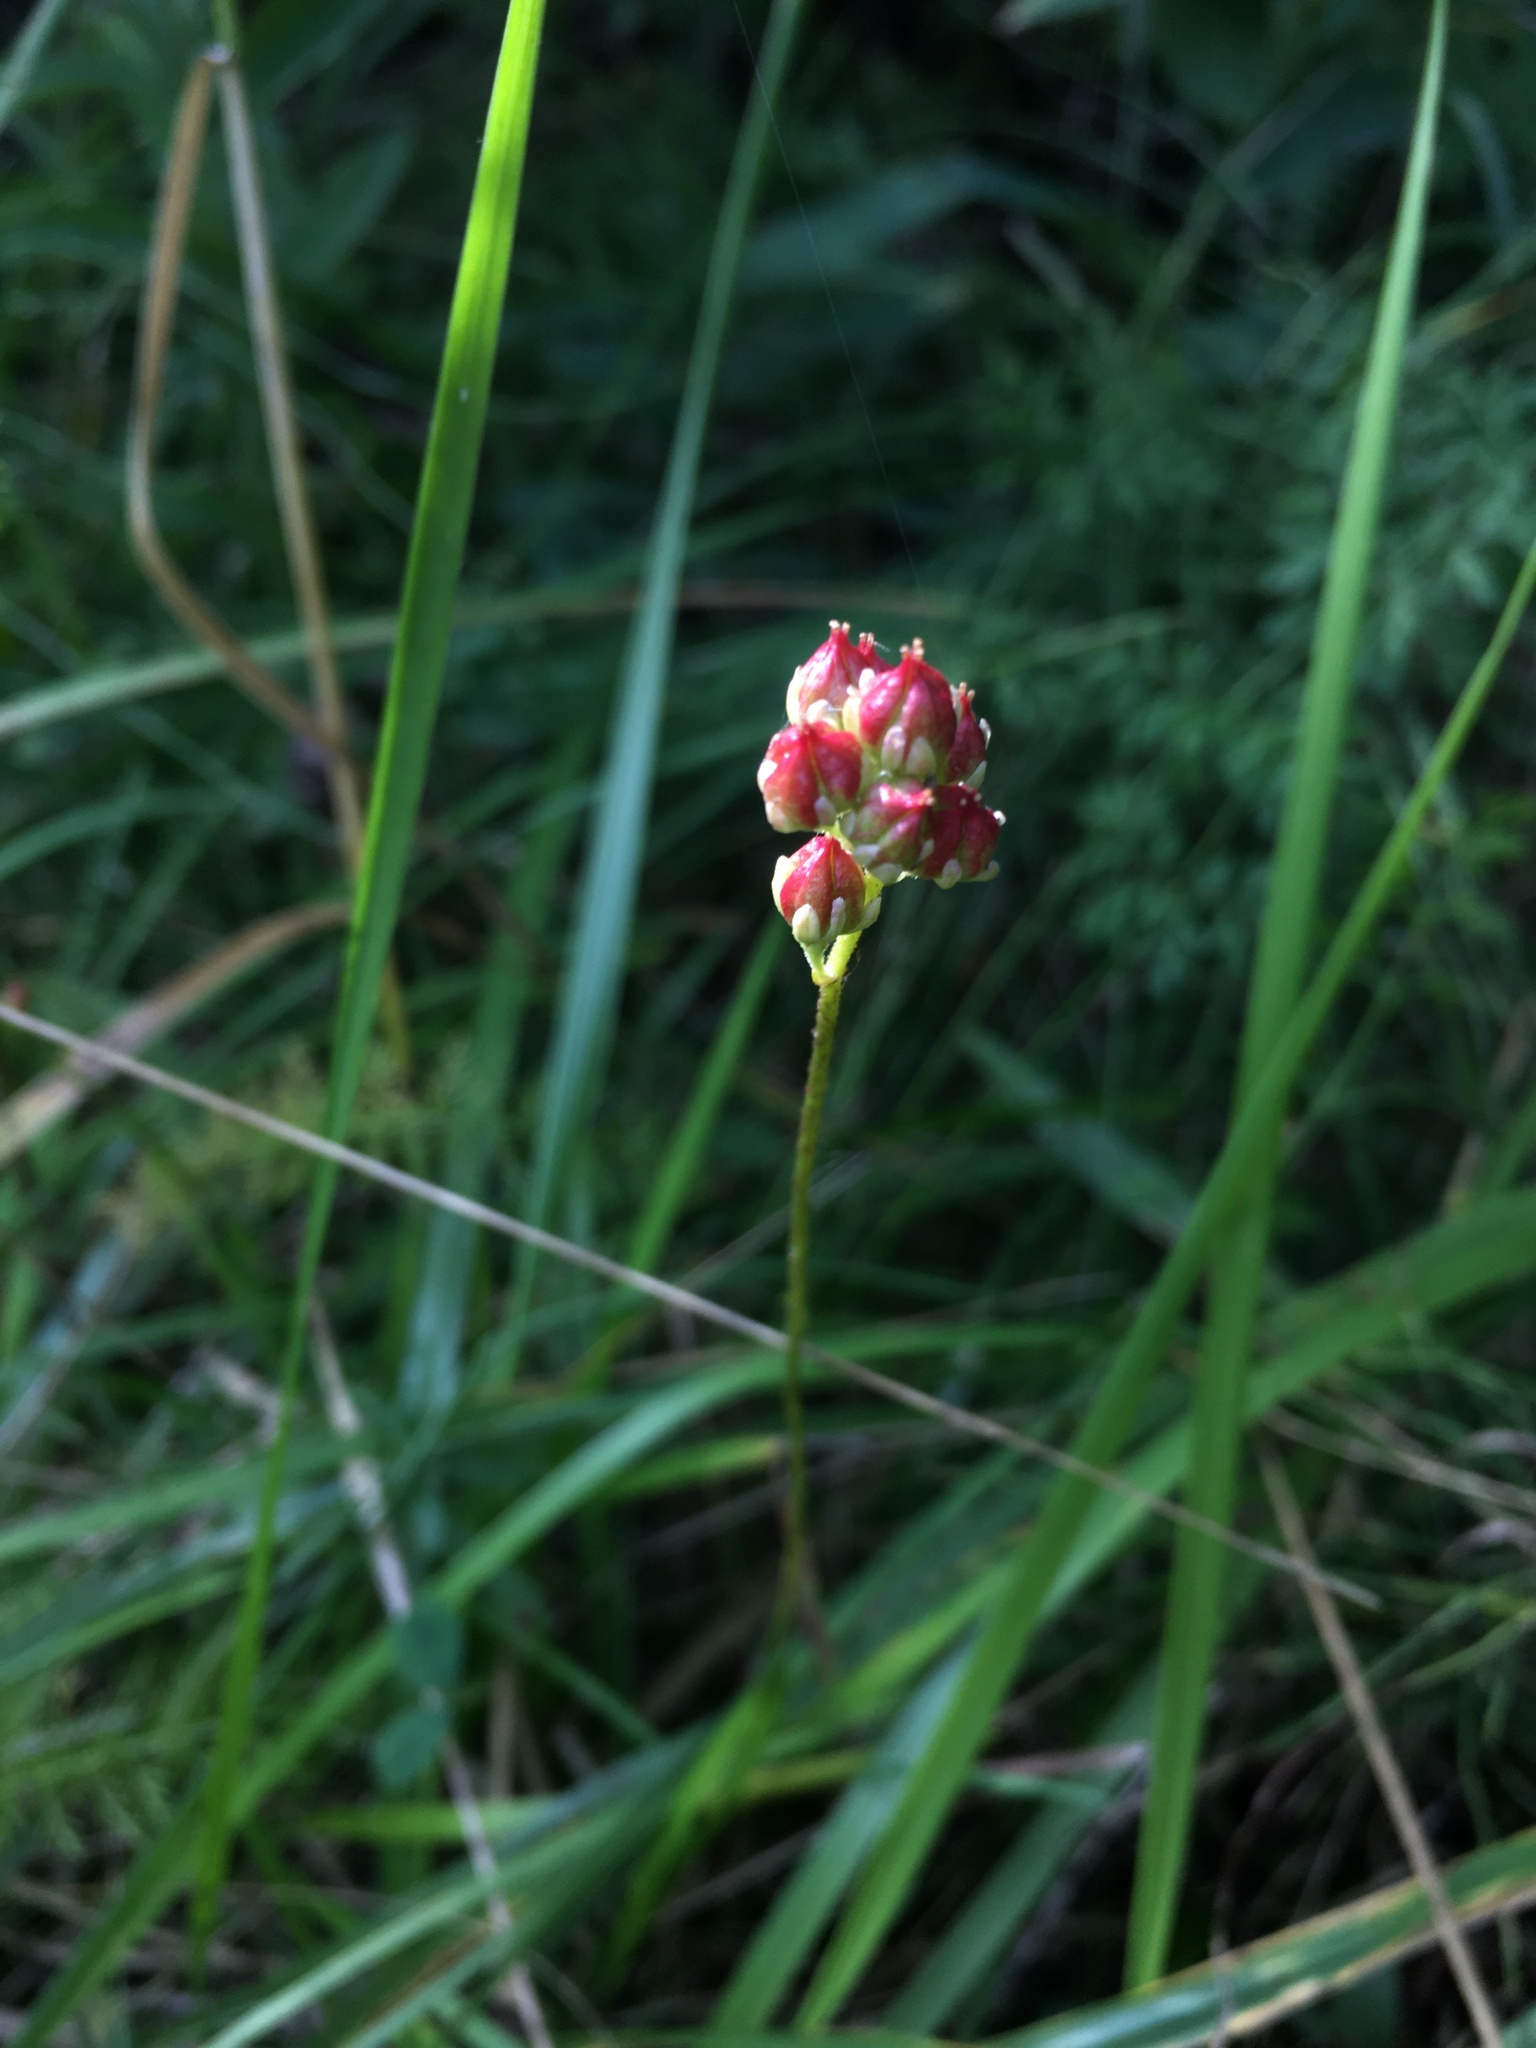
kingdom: Plantae
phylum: Tracheophyta
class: Liliopsida
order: Alismatales
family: Tofieldiaceae
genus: Triantha
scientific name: Triantha glutinosa
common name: Glutinous tofieldia
